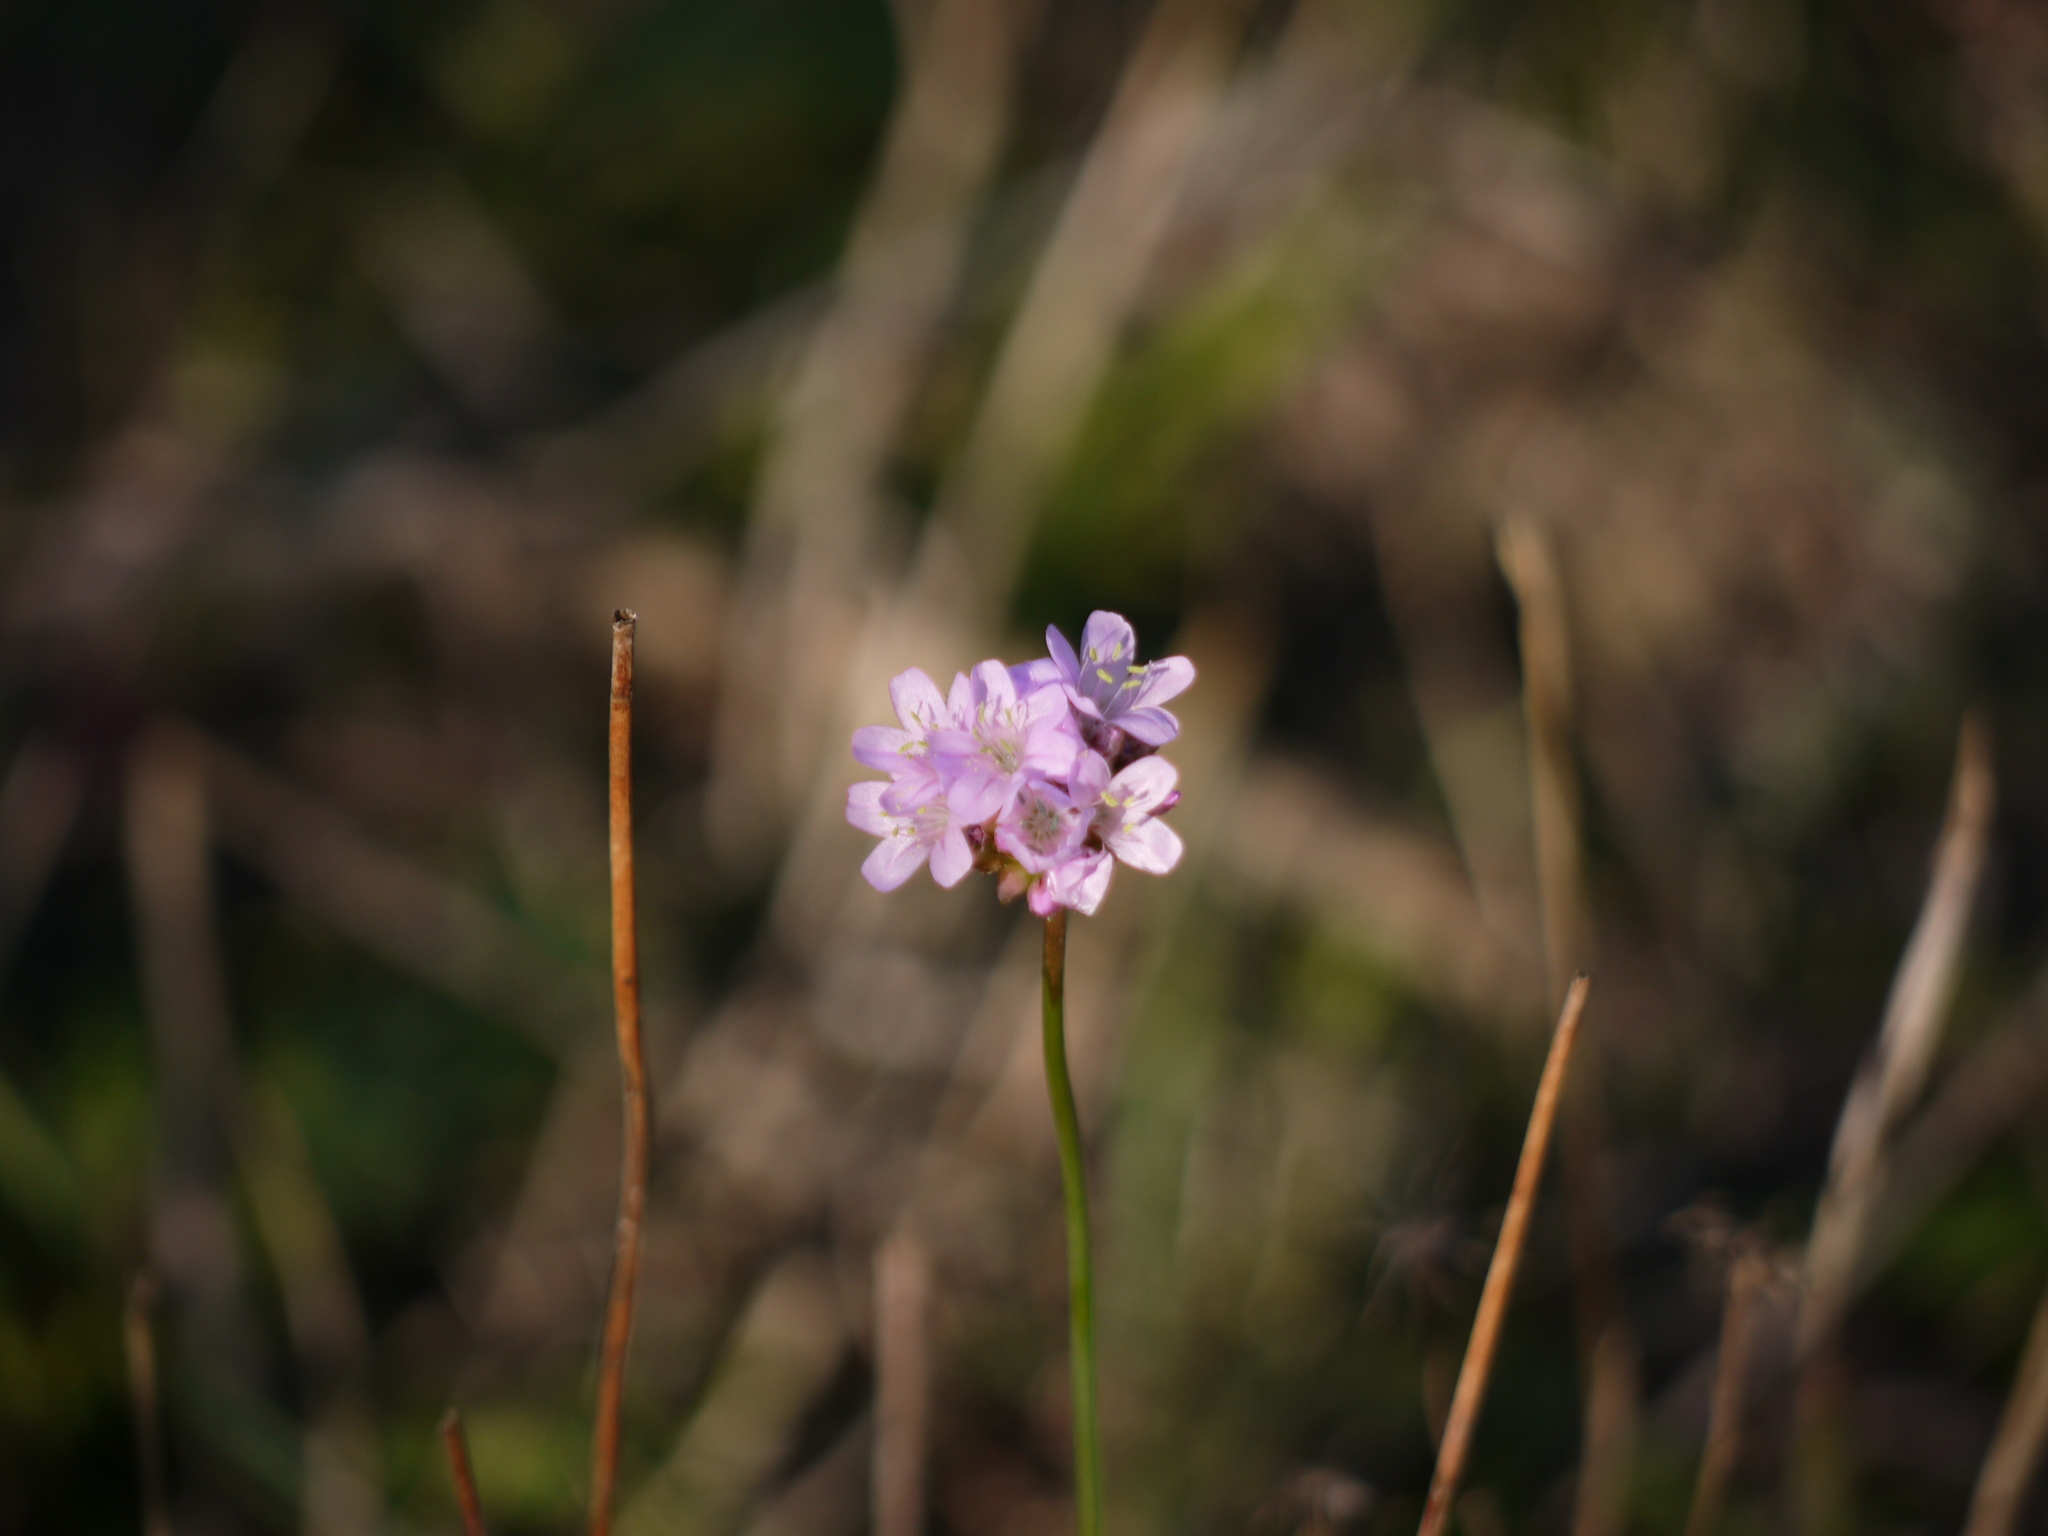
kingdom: Plantae
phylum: Tracheophyta
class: Magnoliopsida
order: Caryophyllales
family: Plumbaginaceae
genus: Armeria
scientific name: Armeria maritima
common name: Thrift
